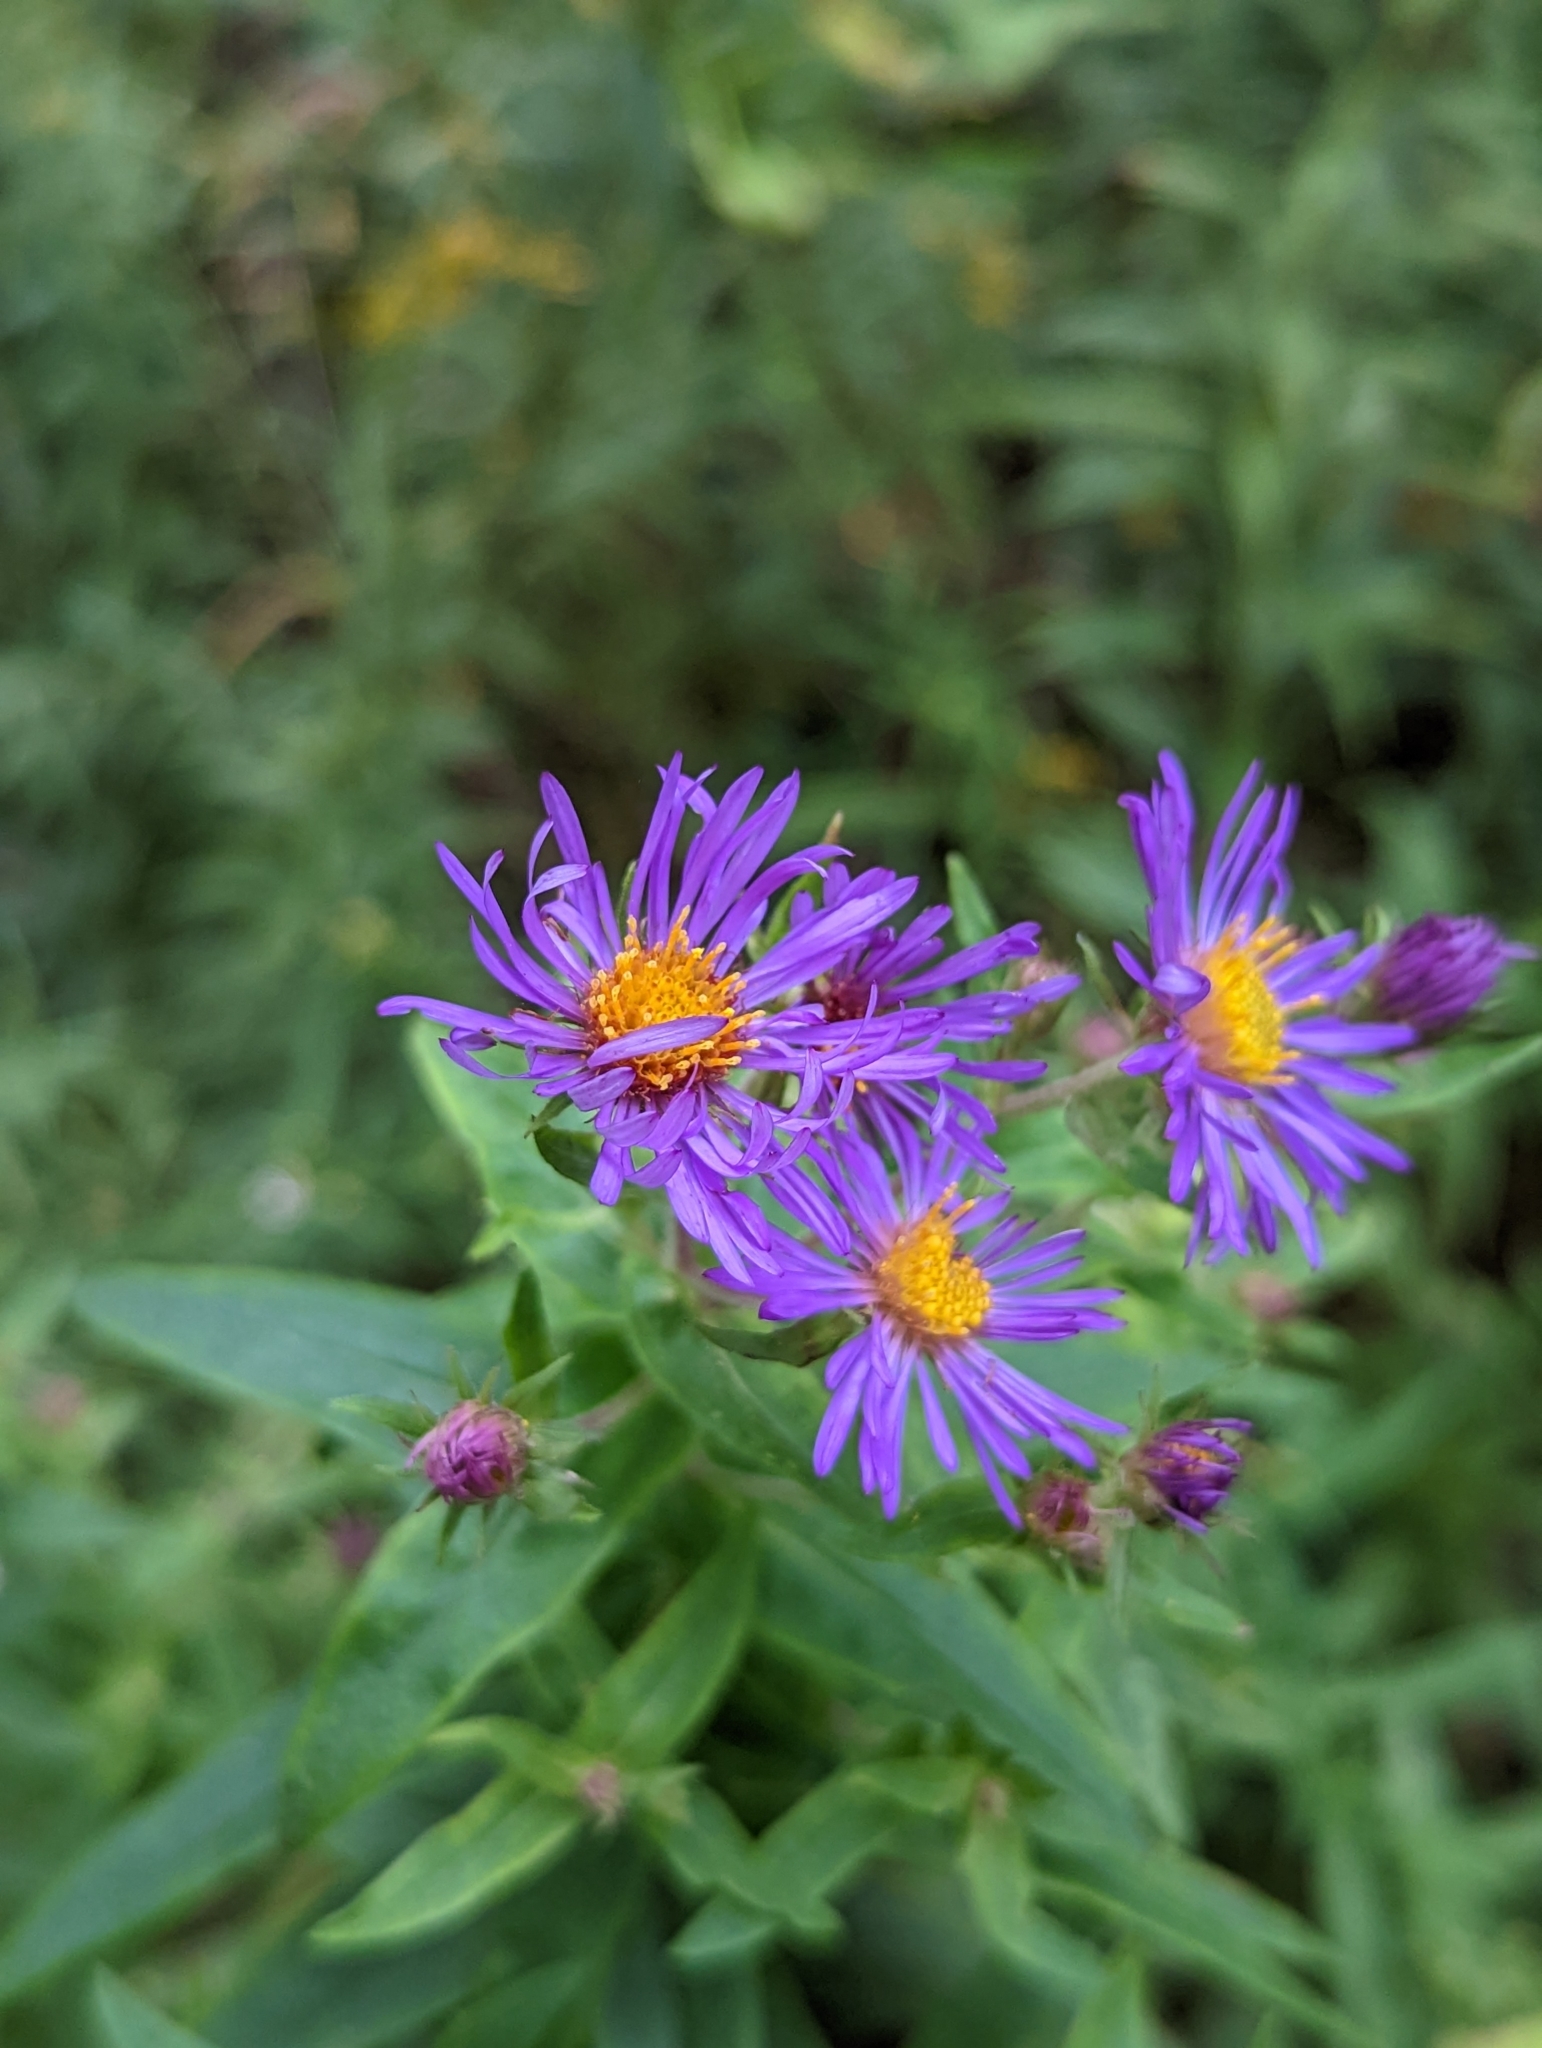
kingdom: Plantae
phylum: Tracheophyta
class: Magnoliopsida
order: Asterales
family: Asteraceae
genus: Symphyotrichum
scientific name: Symphyotrichum novae-angliae
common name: Michaelmas daisy
